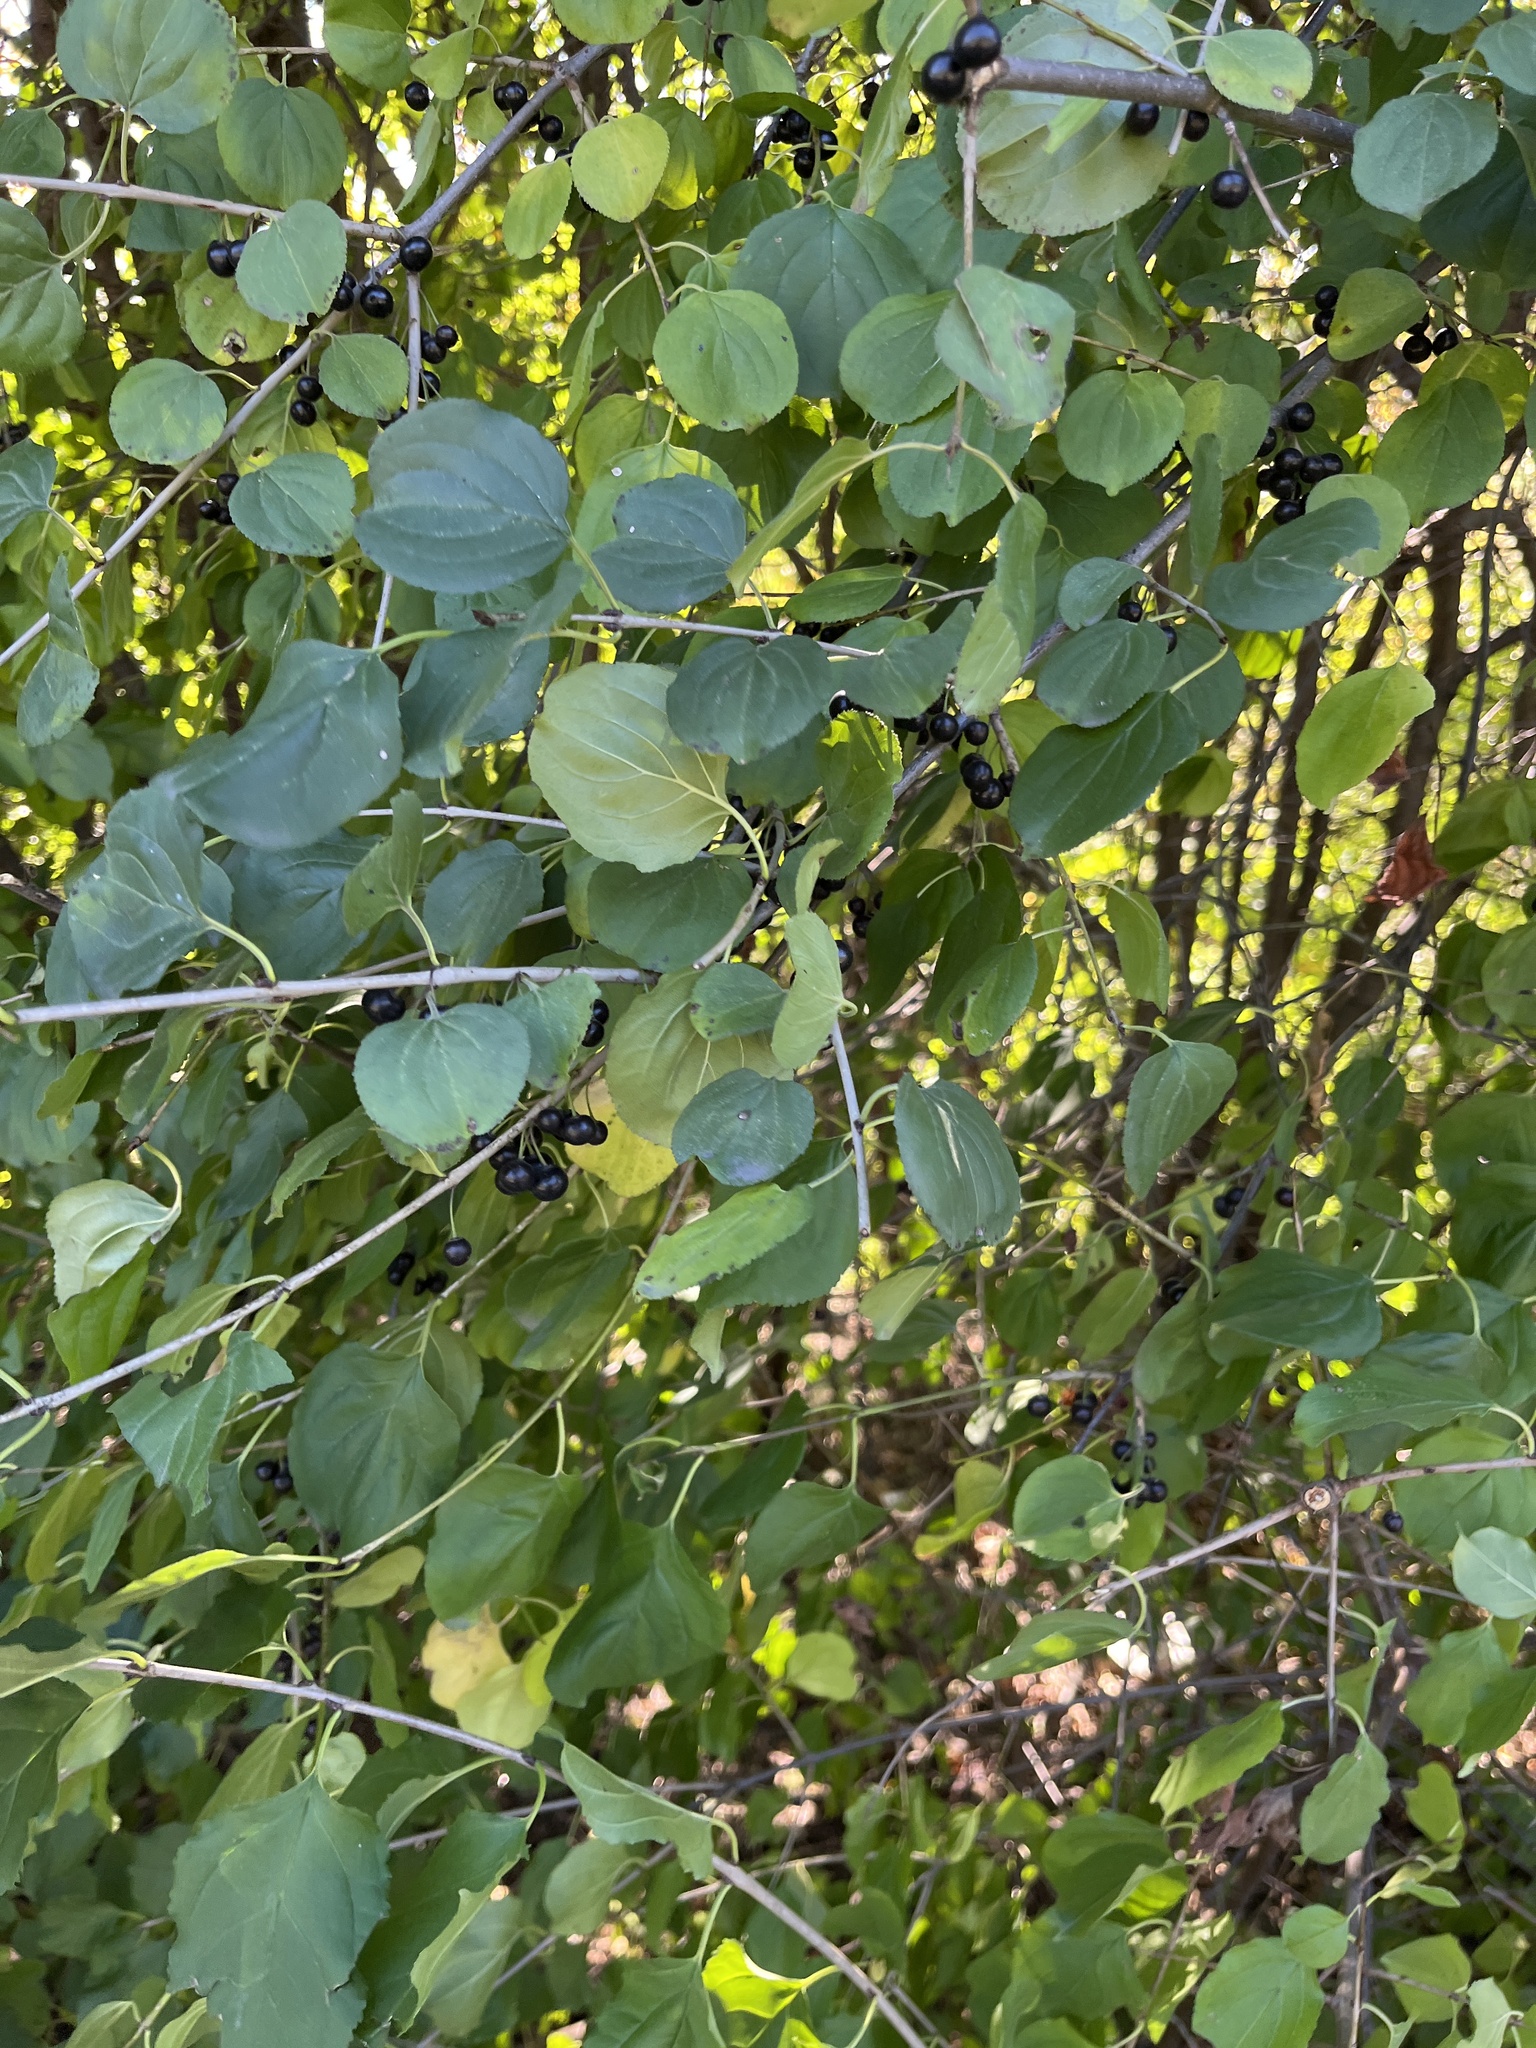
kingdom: Plantae
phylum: Tracheophyta
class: Magnoliopsida
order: Rosales
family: Rhamnaceae
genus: Rhamnus
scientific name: Rhamnus cathartica
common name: Common buckthorn
